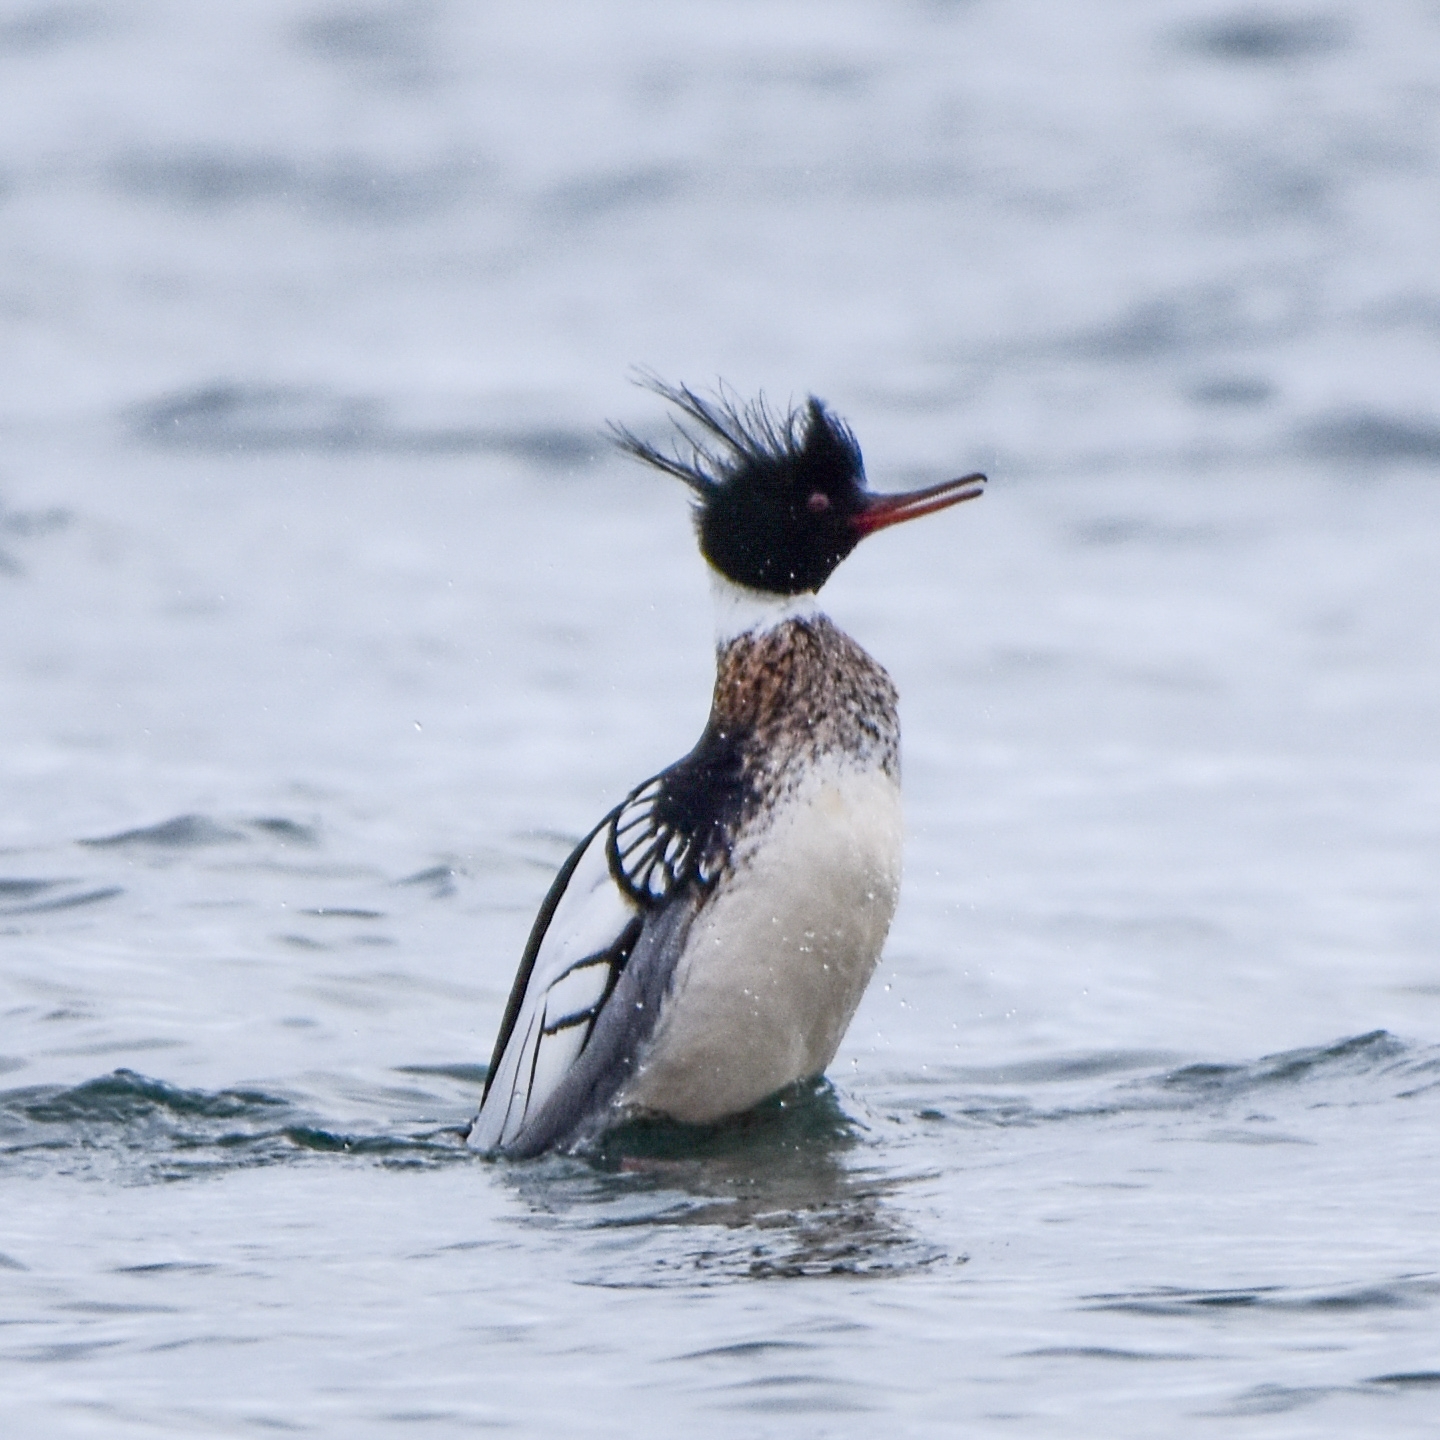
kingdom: Animalia
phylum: Chordata
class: Aves
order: Anseriformes
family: Anatidae
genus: Mergus
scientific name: Mergus serrator
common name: Red-breasted merganser
